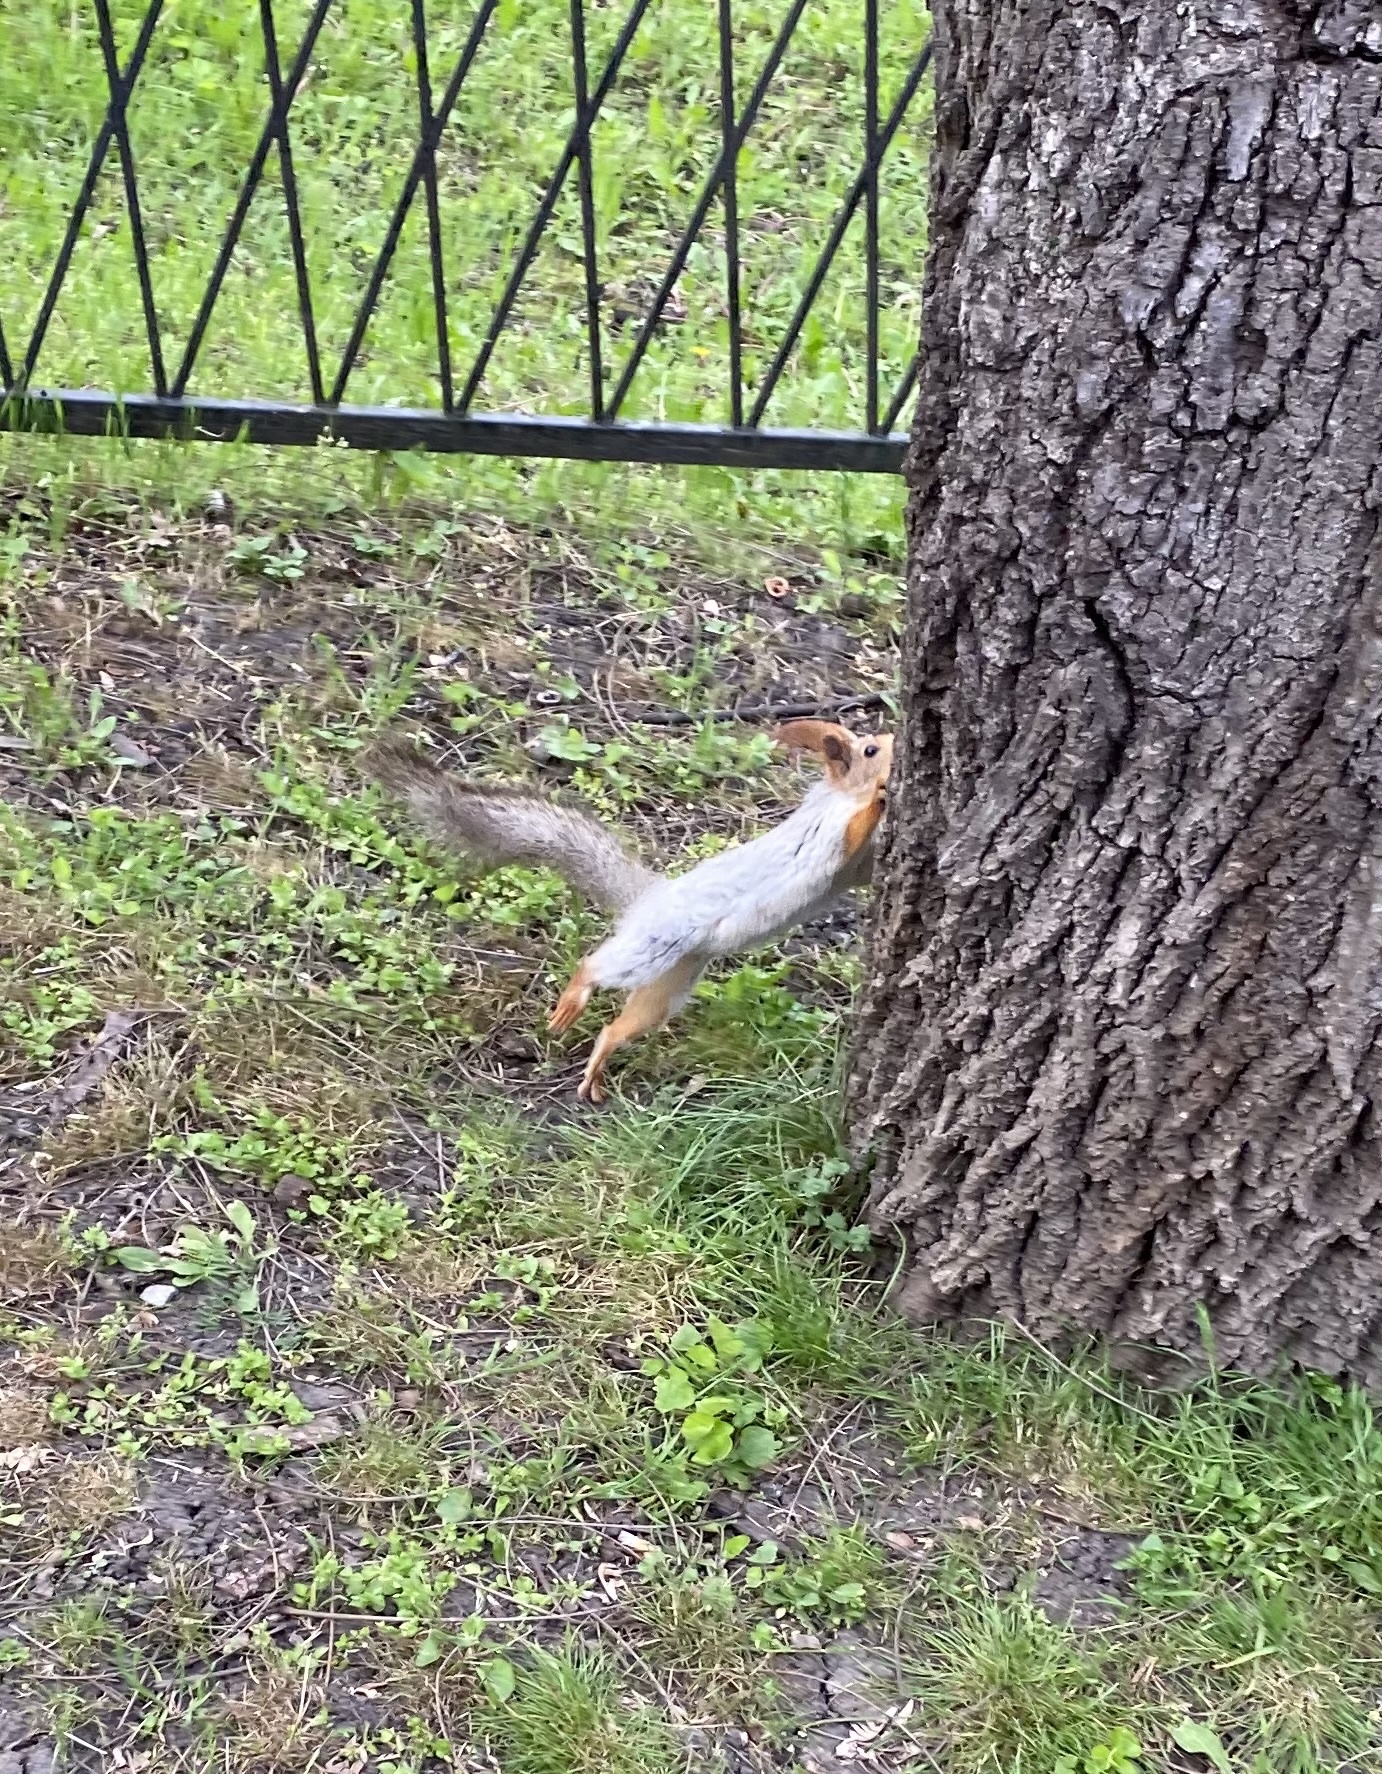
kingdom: Animalia
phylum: Chordata
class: Mammalia
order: Rodentia
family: Sciuridae
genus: Sciurus
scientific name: Sciurus vulgaris
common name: Eurasian red squirrel
